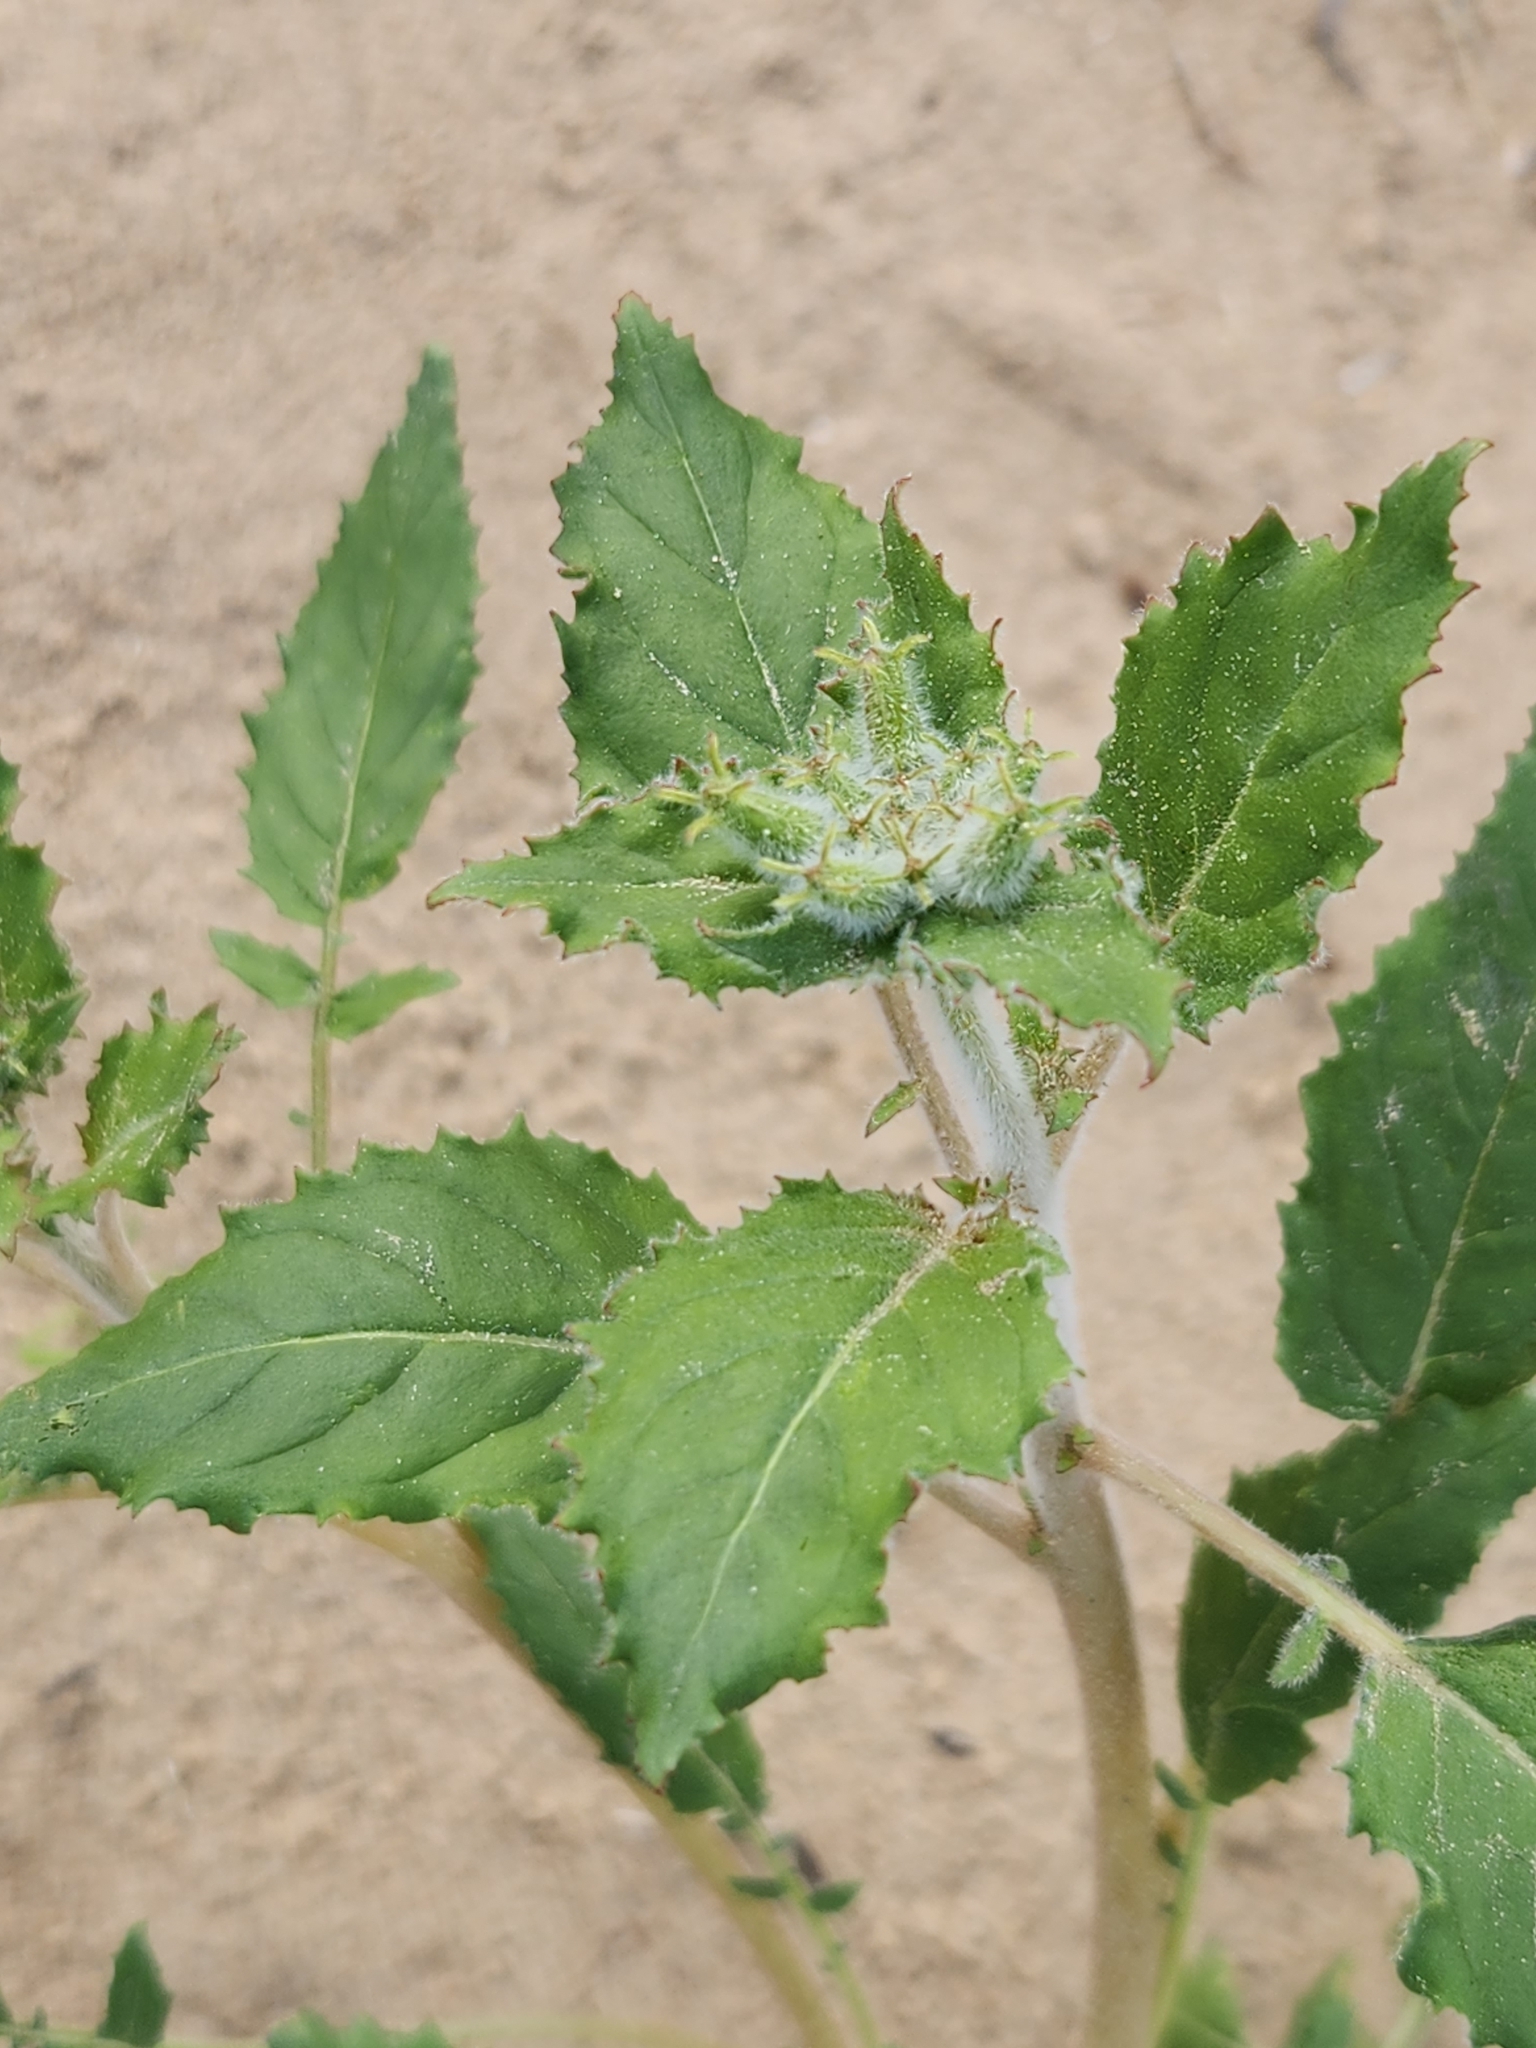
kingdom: Plantae
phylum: Tracheophyta
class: Magnoliopsida
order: Myrtales
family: Onagraceae
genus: Chylismia
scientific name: Chylismia claviformis
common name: Browneyes
